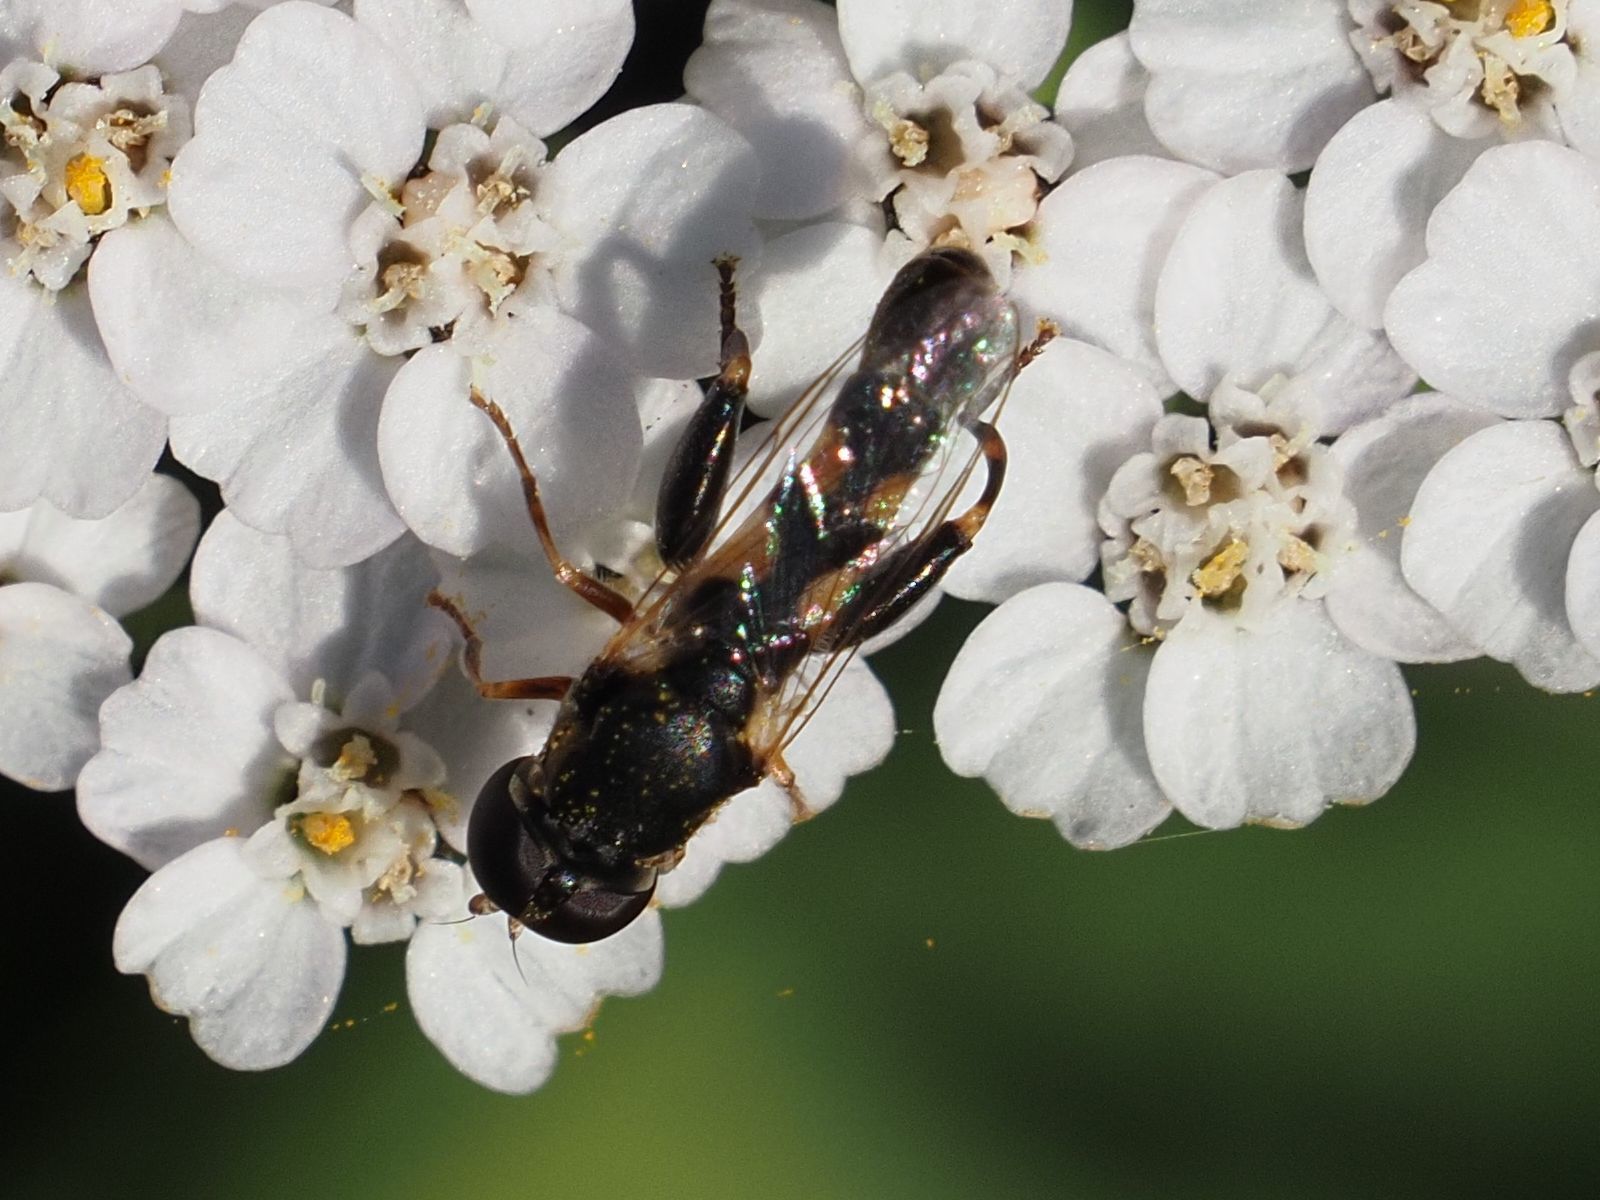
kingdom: Animalia
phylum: Arthropoda
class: Insecta
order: Diptera
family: Syrphidae
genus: Syritta
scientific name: Syritta pipiens
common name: Hover fly
